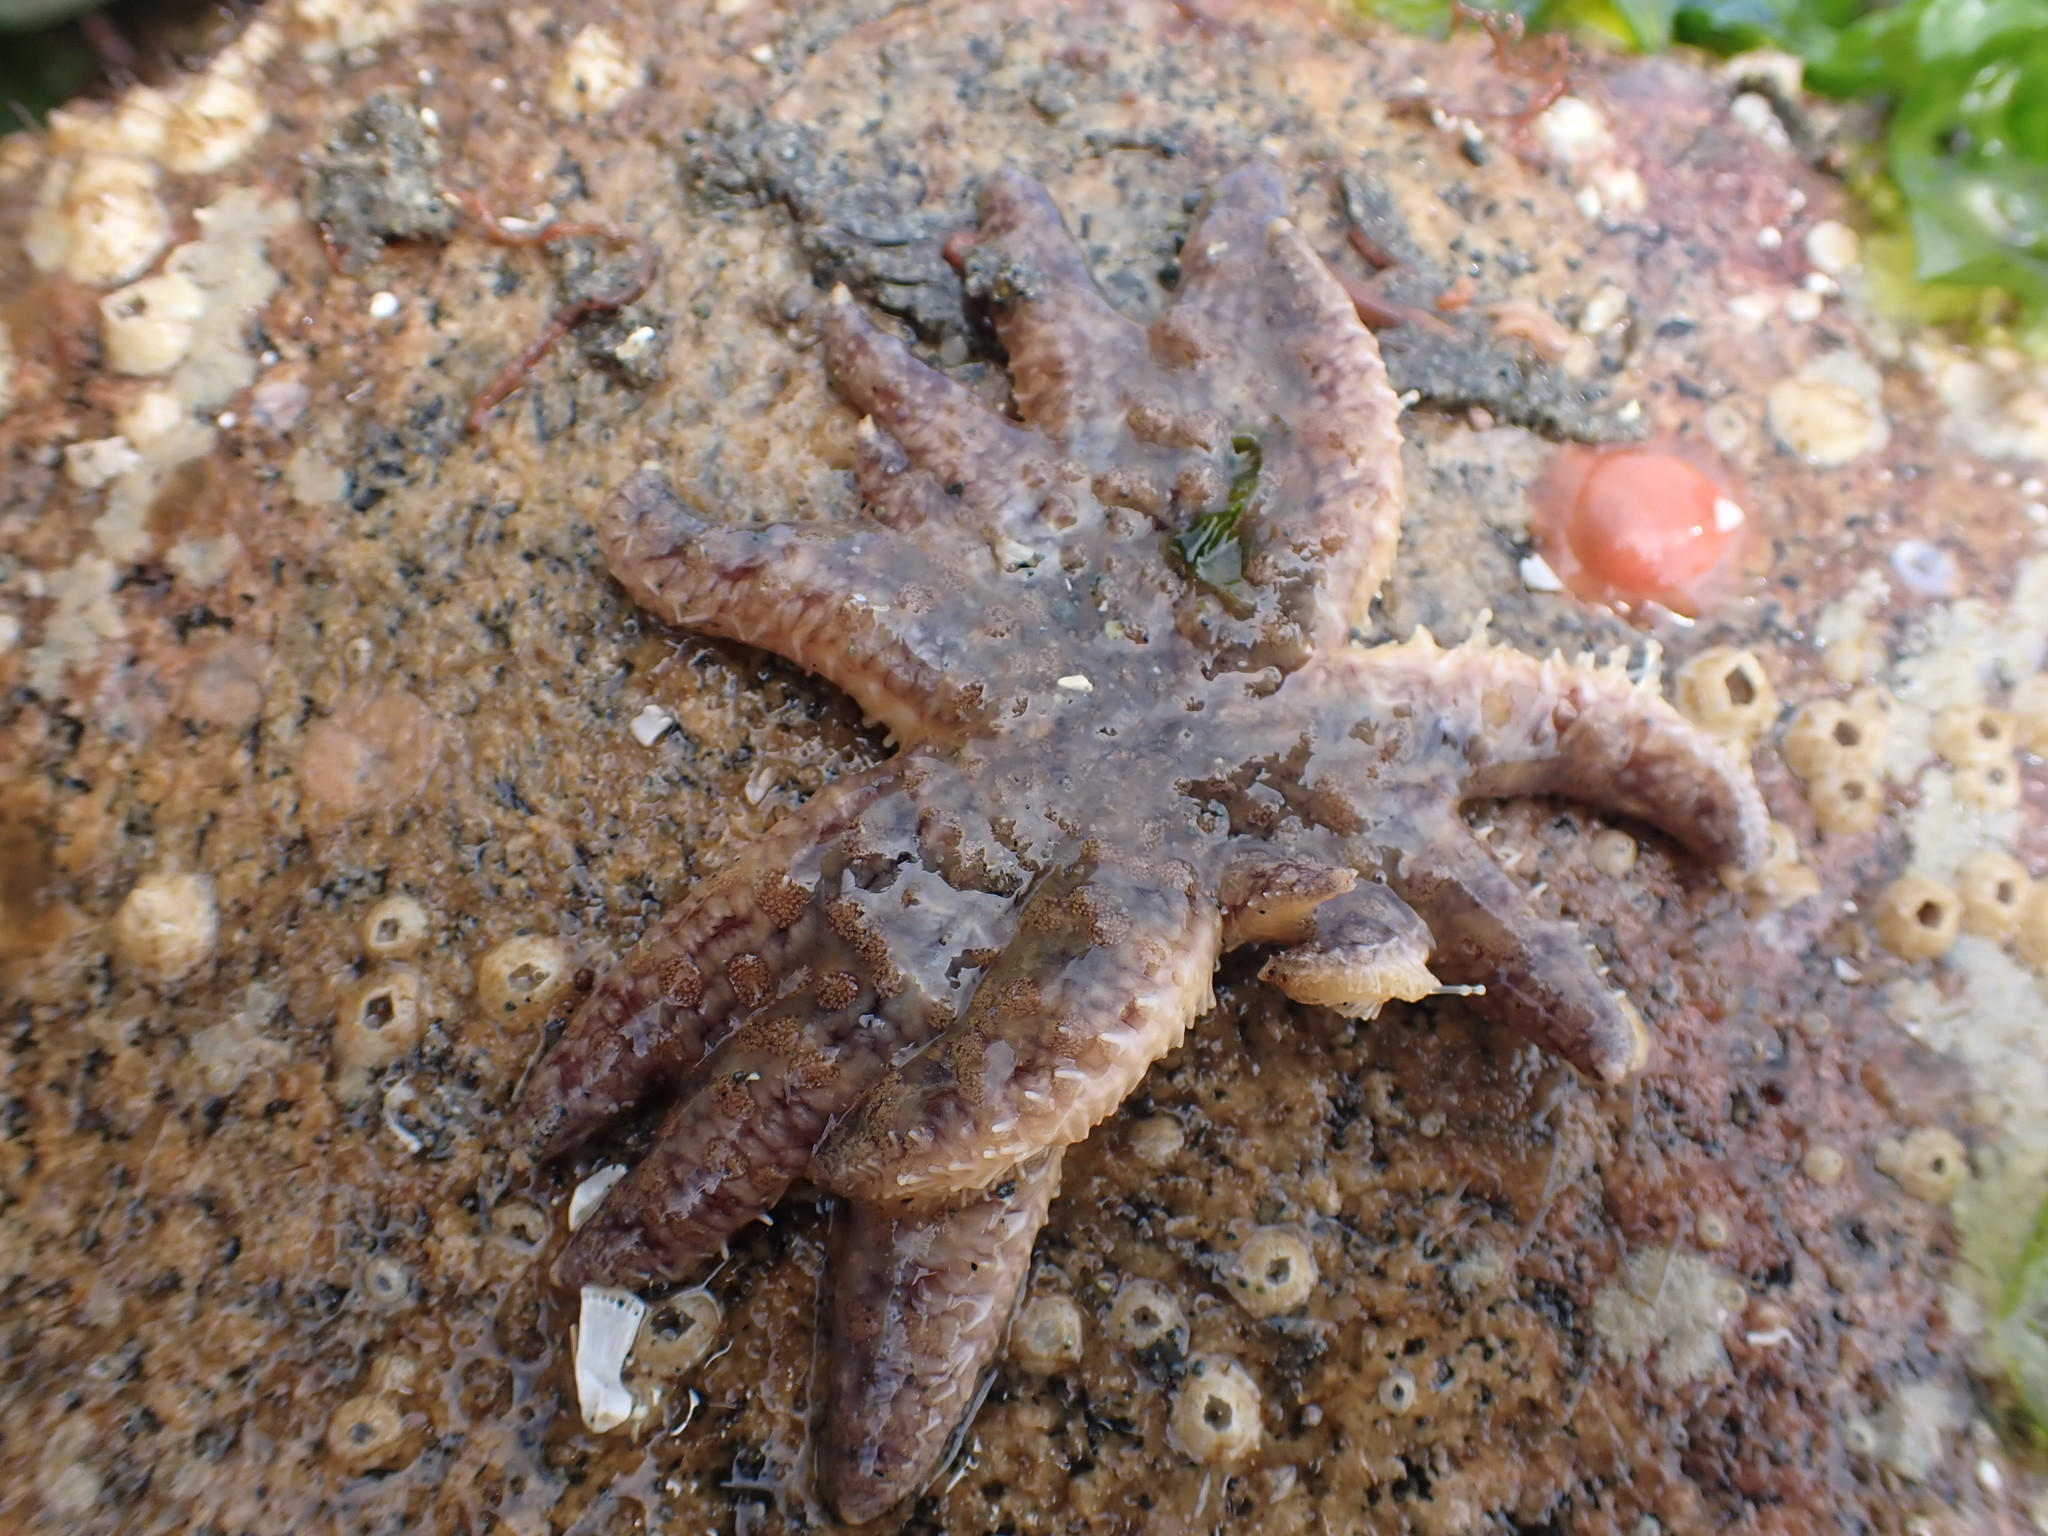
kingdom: Animalia
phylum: Echinodermata
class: Asteroidea
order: Forcipulatida
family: Asteriidae
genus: Pycnopodia
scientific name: Pycnopodia helianthoides
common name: Rag mop
